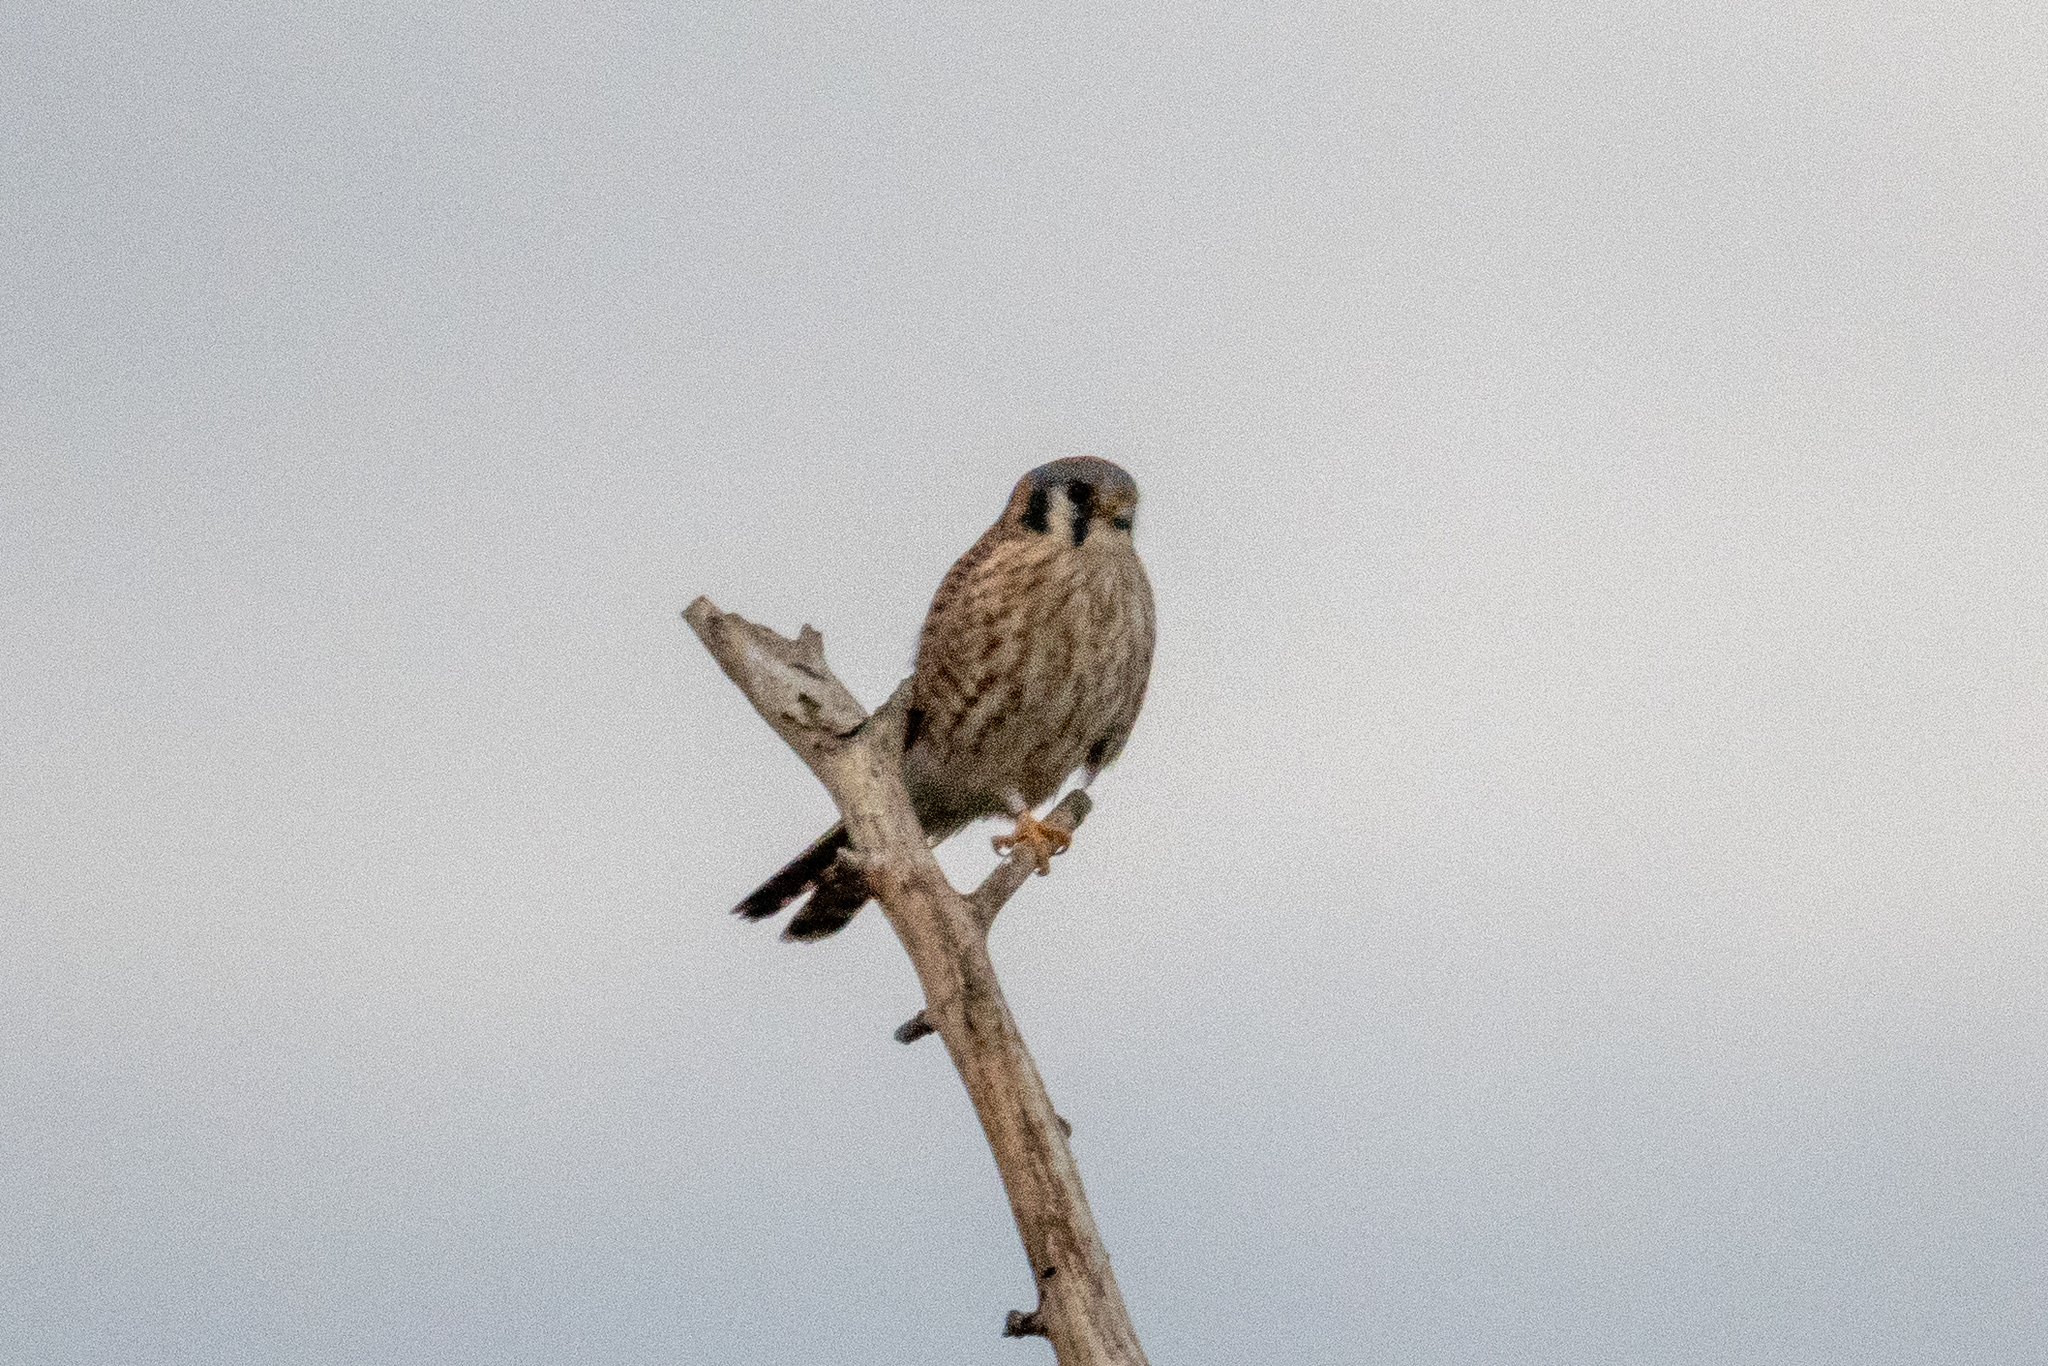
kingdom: Animalia
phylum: Chordata
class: Aves
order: Falconiformes
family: Falconidae
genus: Falco
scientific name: Falco sparverius
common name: American kestrel
